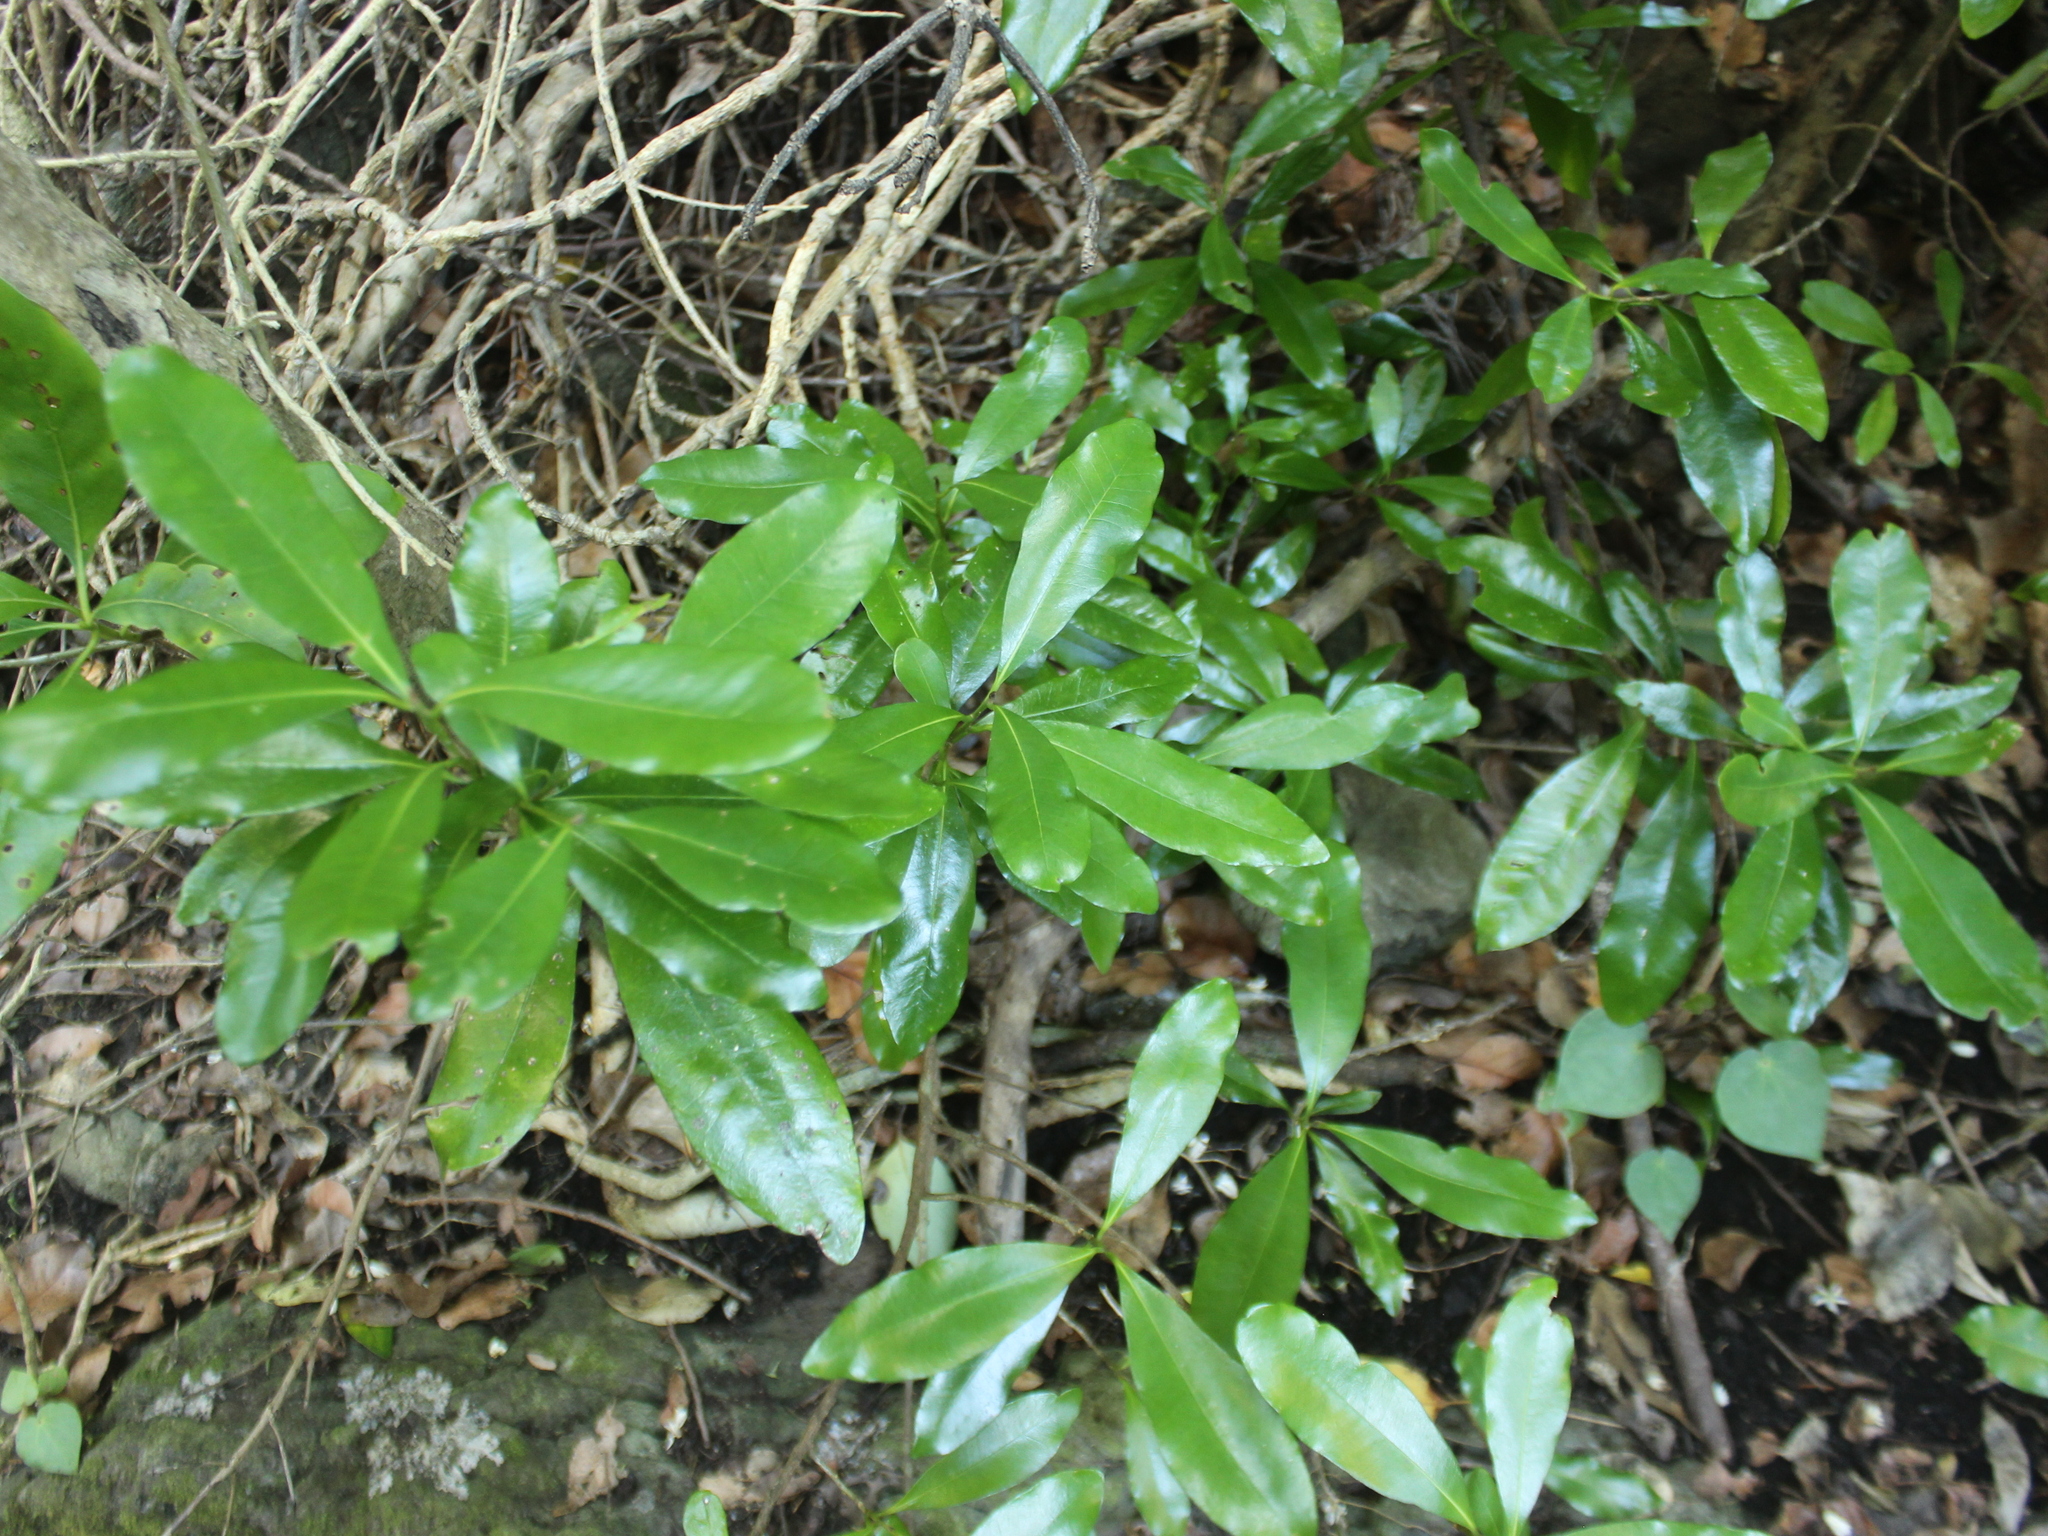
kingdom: Plantae
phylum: Tracheophyta
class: Magnoliopsida
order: Ericales
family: Sapotaceae
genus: Planchonella
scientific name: Planchonella costata
